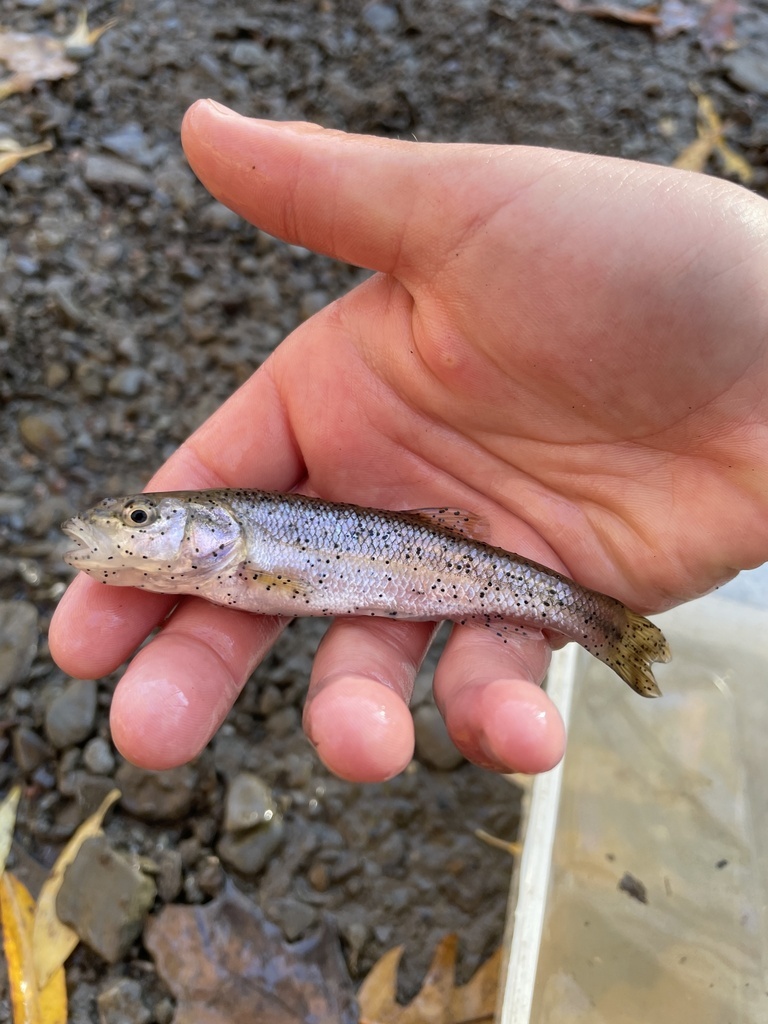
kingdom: Animalia
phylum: Chordata
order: Cypriniformes
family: Cyprinidae
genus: Semotilus
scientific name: Semotilus atromaculatus
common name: Creek chub
